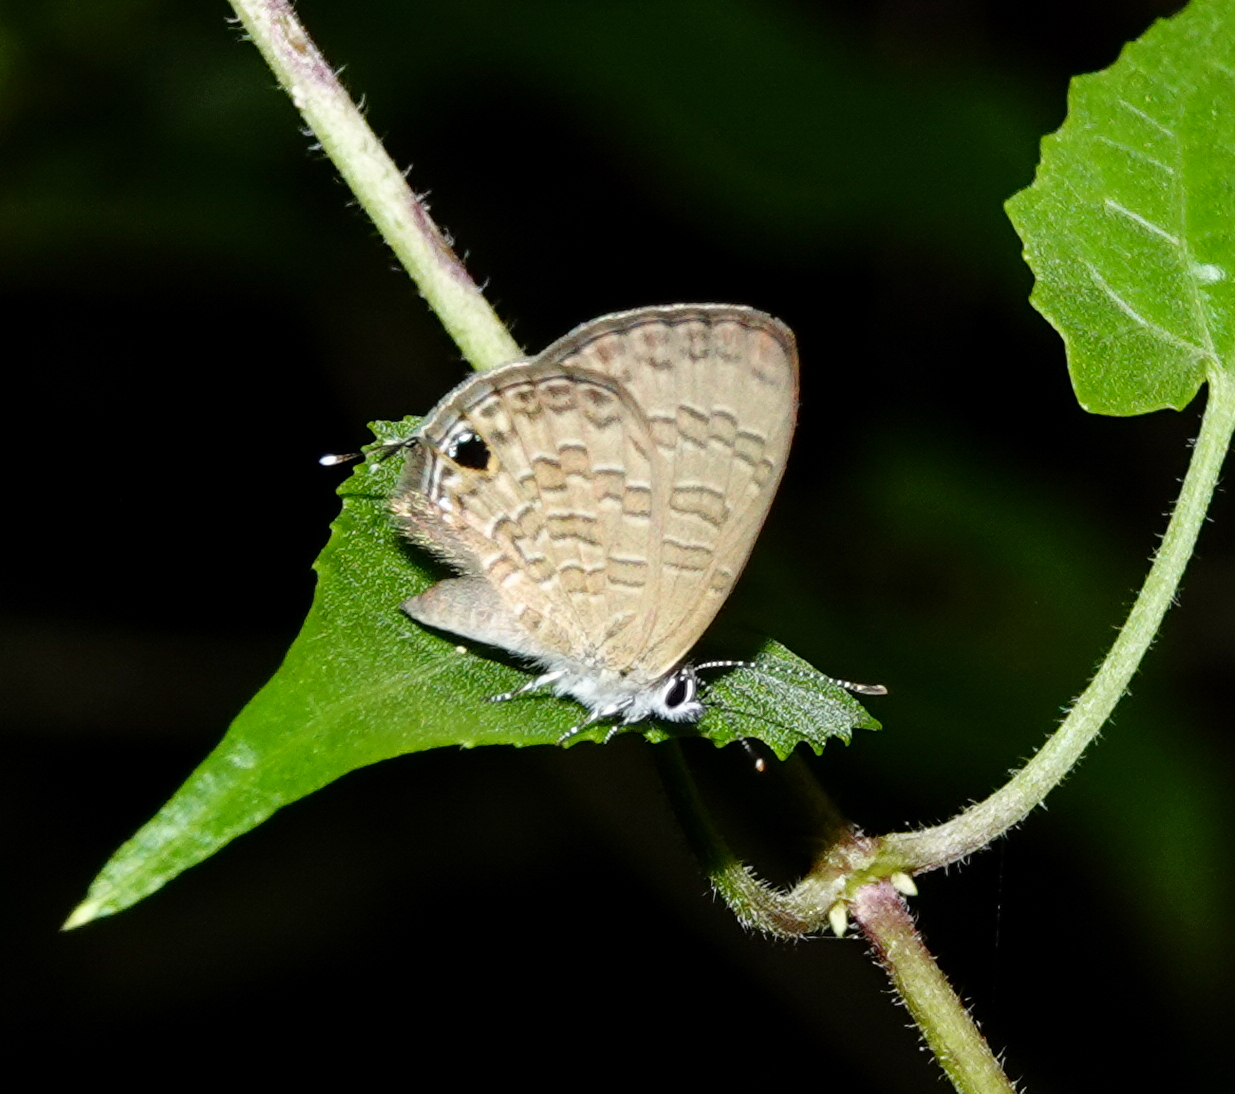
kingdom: Animalia
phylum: Arthropoda
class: Insecta
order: Lepidoptera
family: Lycaenidae
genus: Prosotas
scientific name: Prosotas nora
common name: Common line blue
